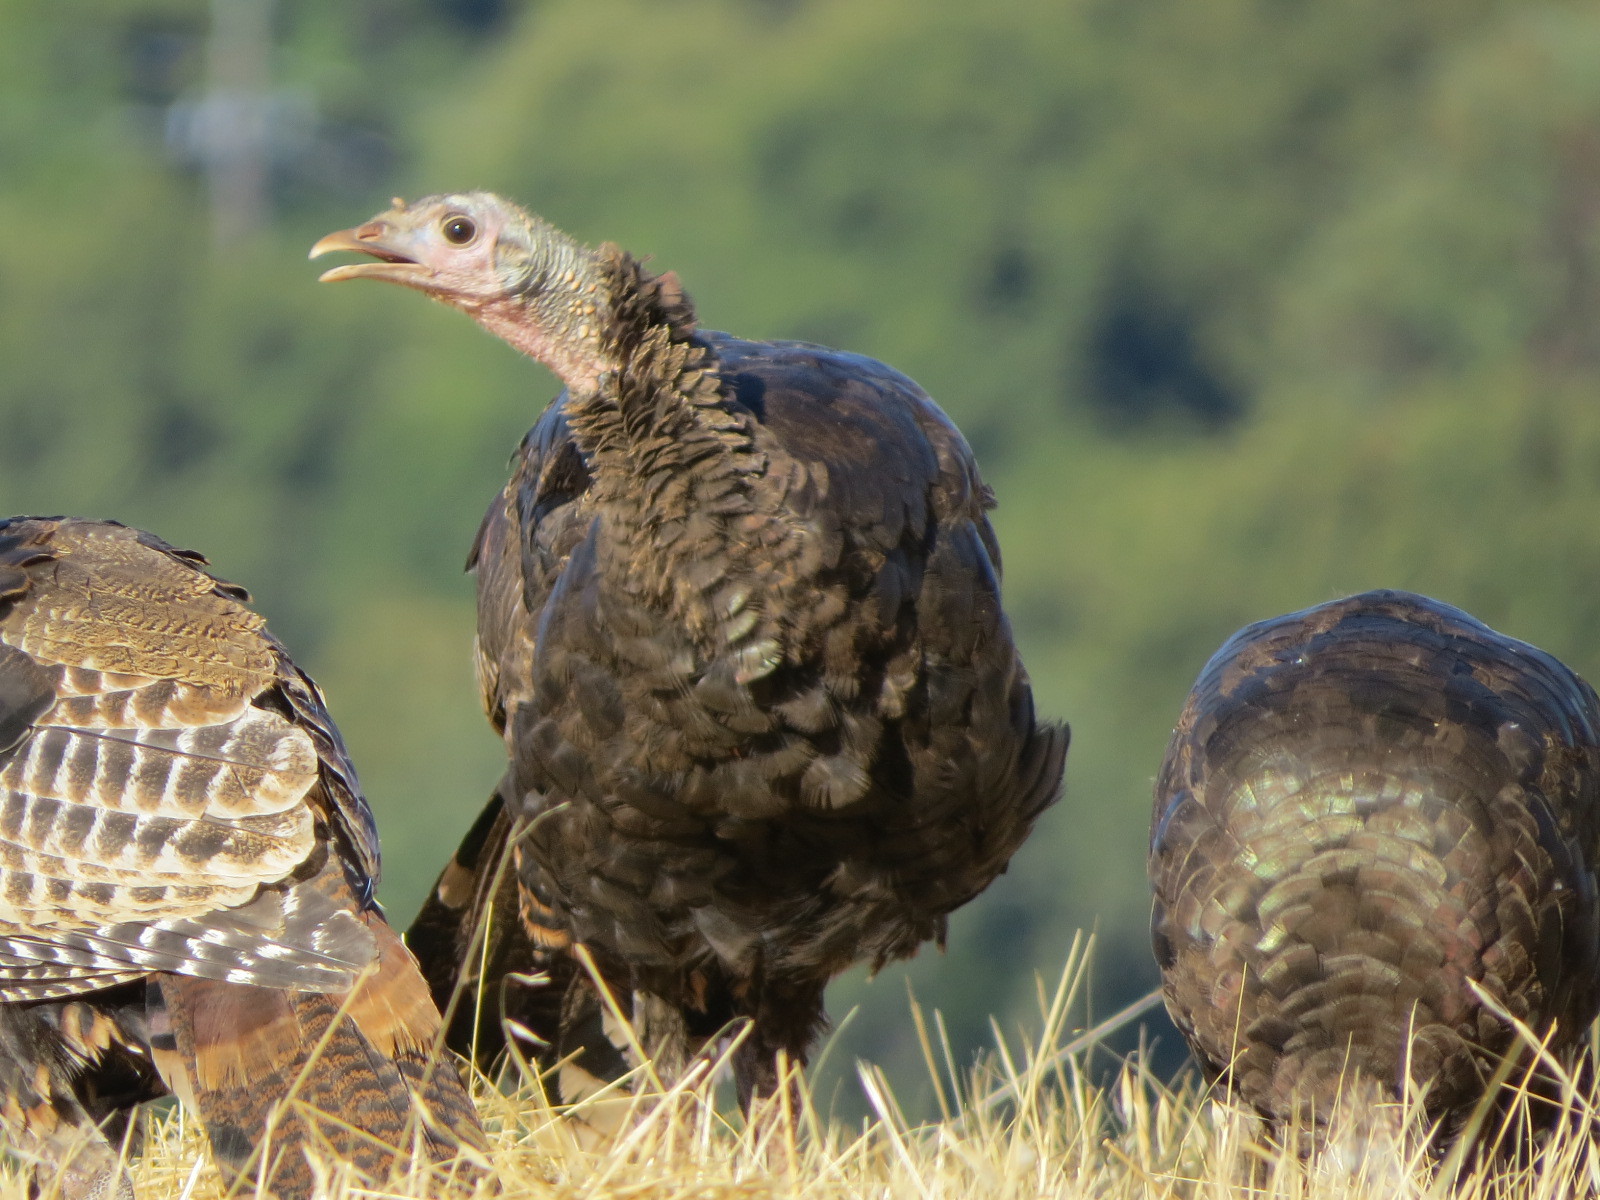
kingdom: Animalia
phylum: Chordata
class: Aves
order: Galliformes
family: Phasianidae
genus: Meleagris
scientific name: Meleagris gallopavo
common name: Wild turkey
